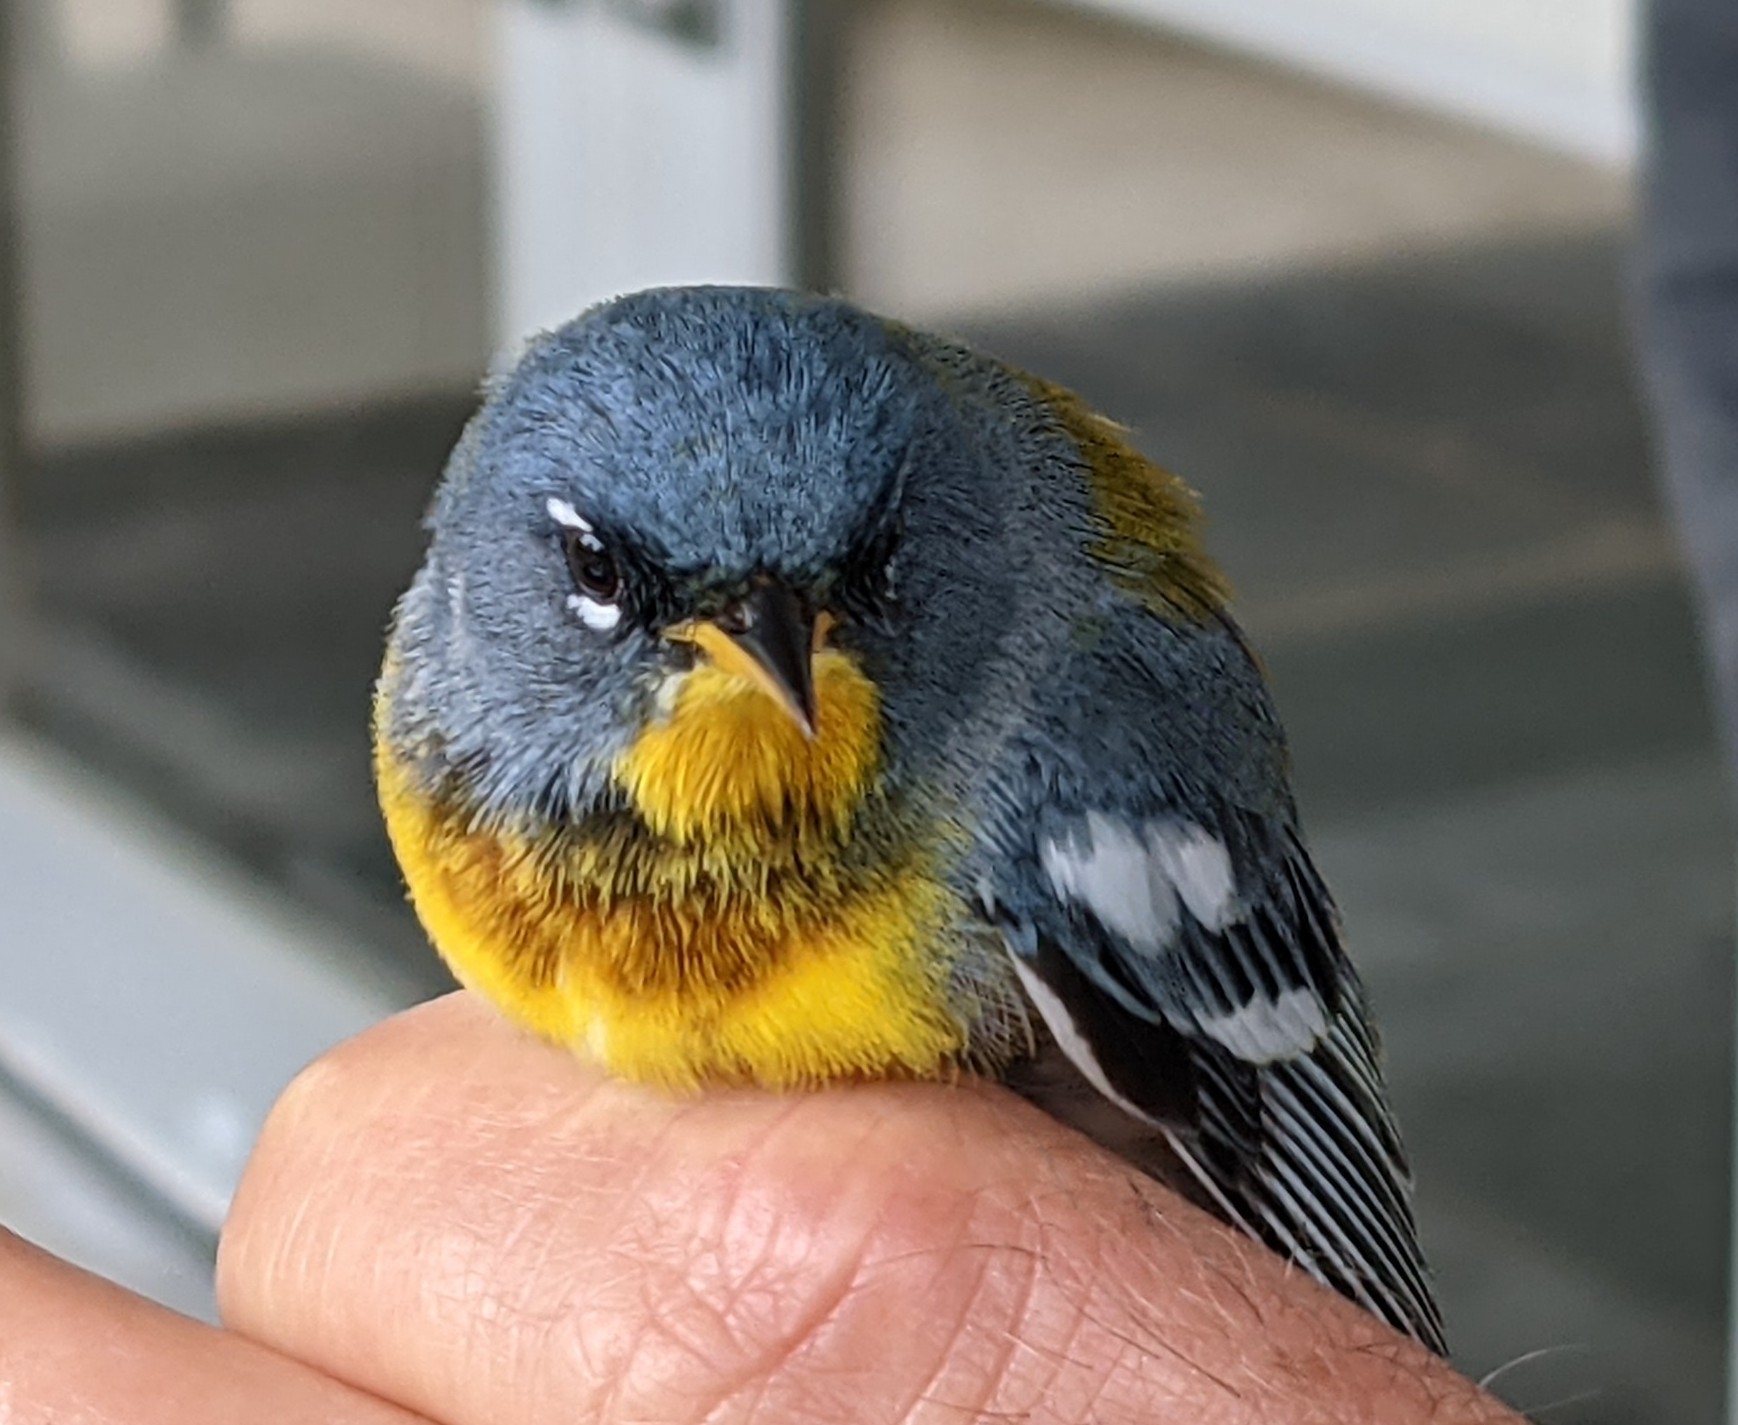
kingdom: Animalia
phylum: Chordata
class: Aves
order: Passeriformes
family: Parulidae
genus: Setophaga
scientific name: Setophaga americana
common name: Northern parula
